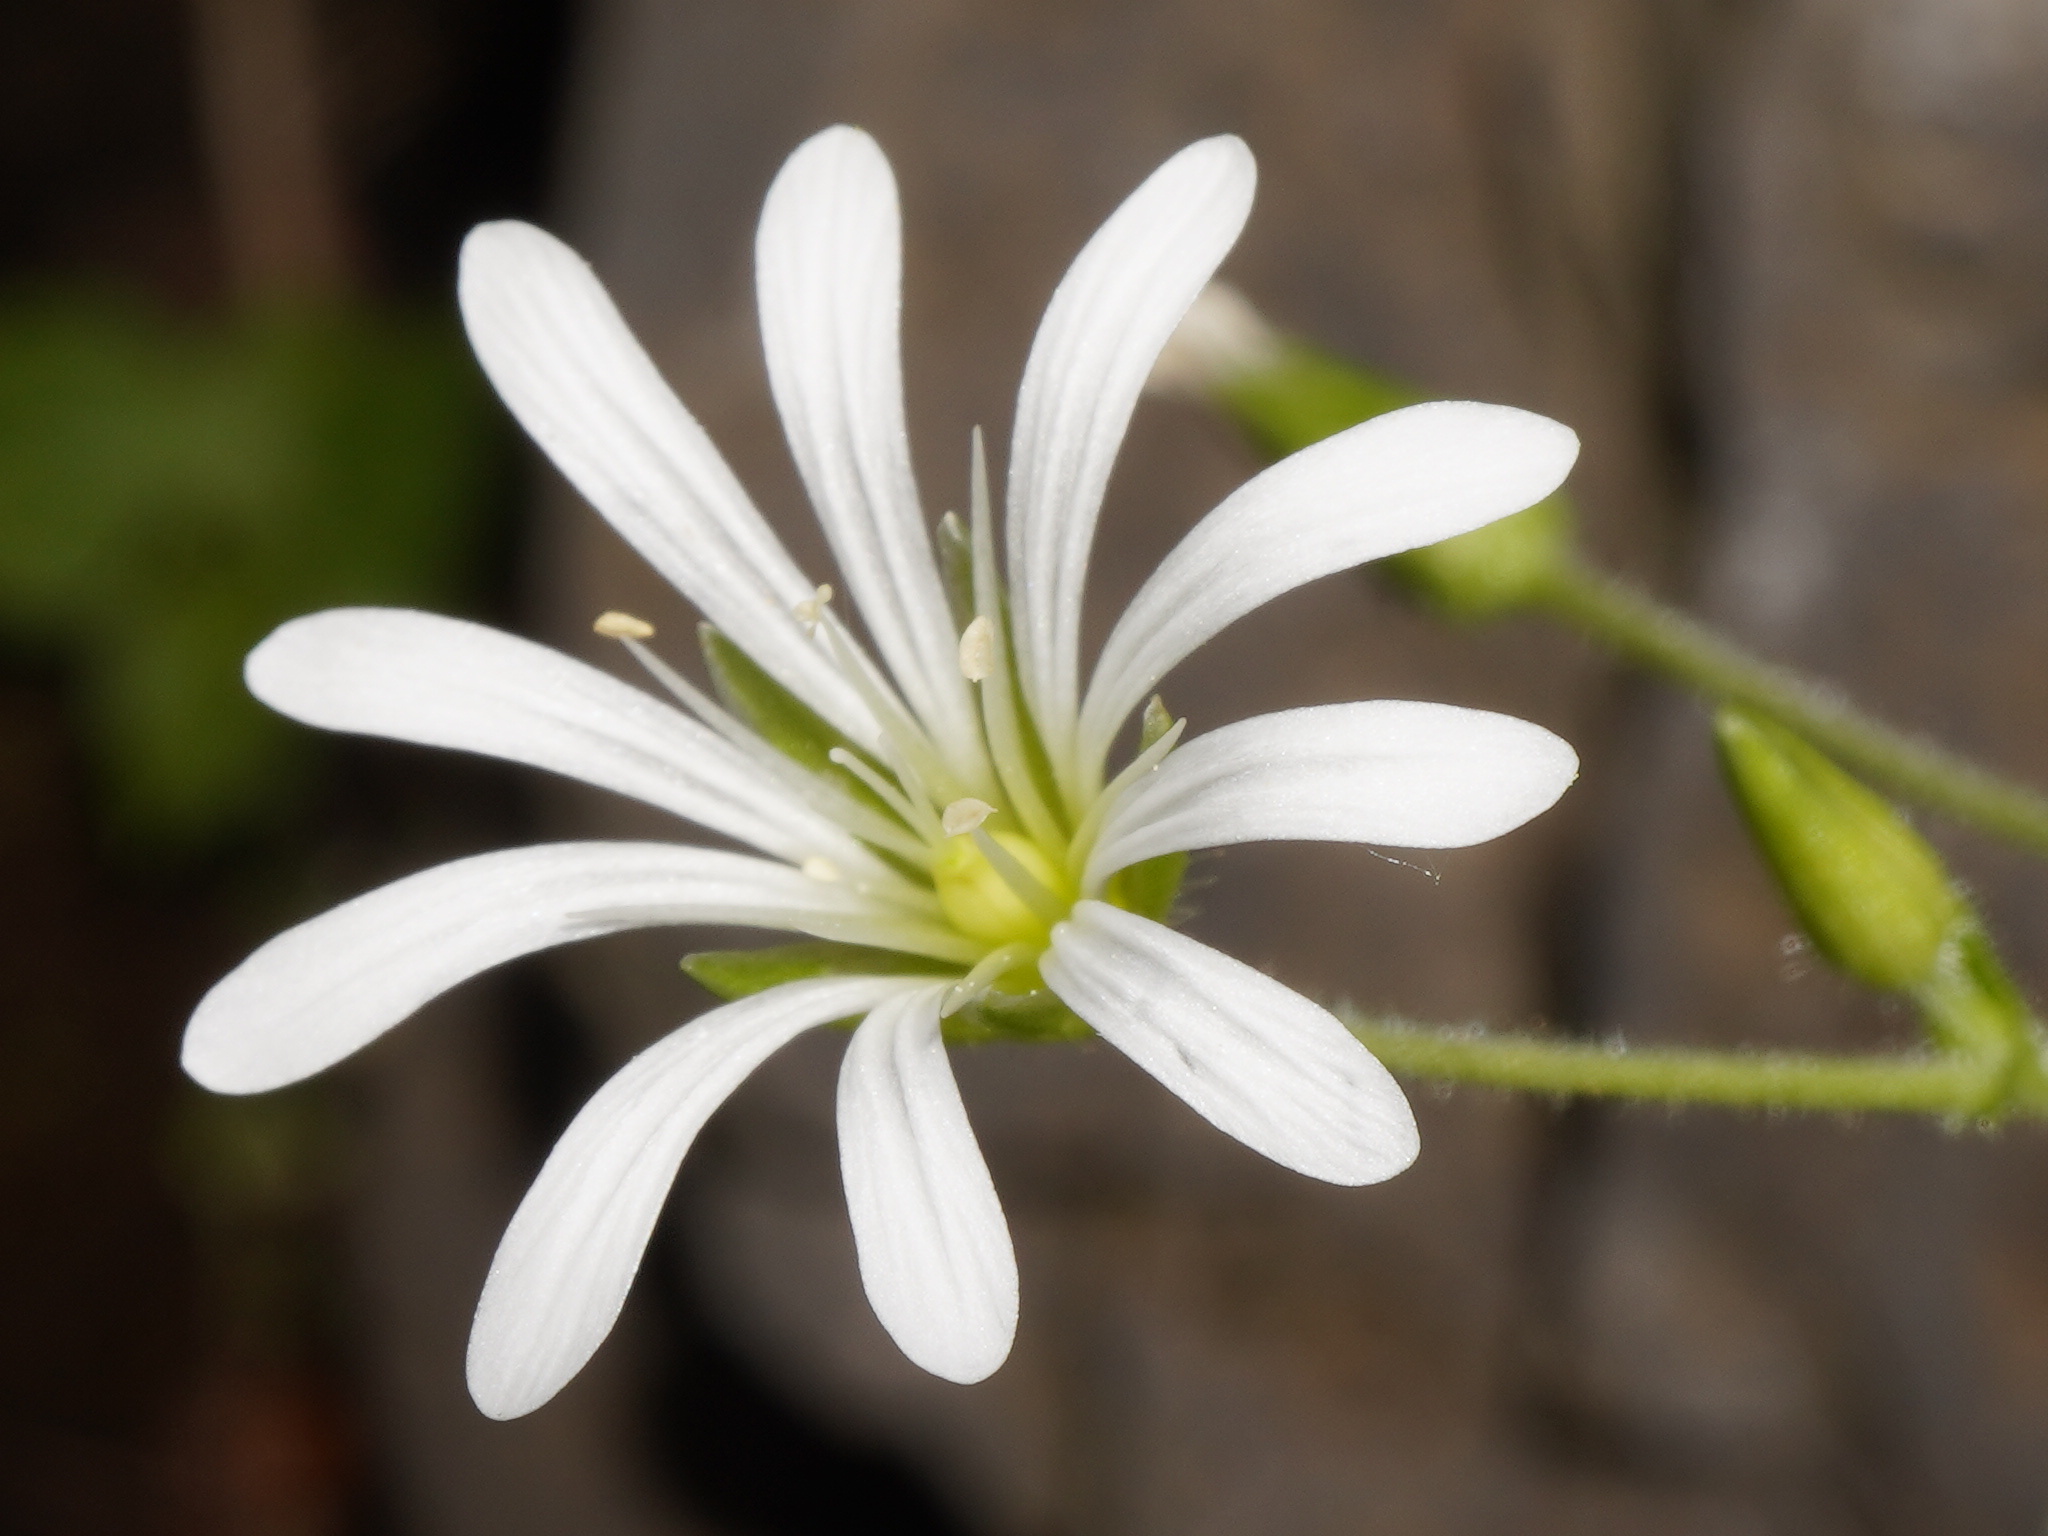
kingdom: Plantae
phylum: Tracheophyta
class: Magnoliopsida
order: Caryophyllales
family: Caryophyllaceae
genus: Stellaria
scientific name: Stellaria nemorum
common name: Wood stitchwort
